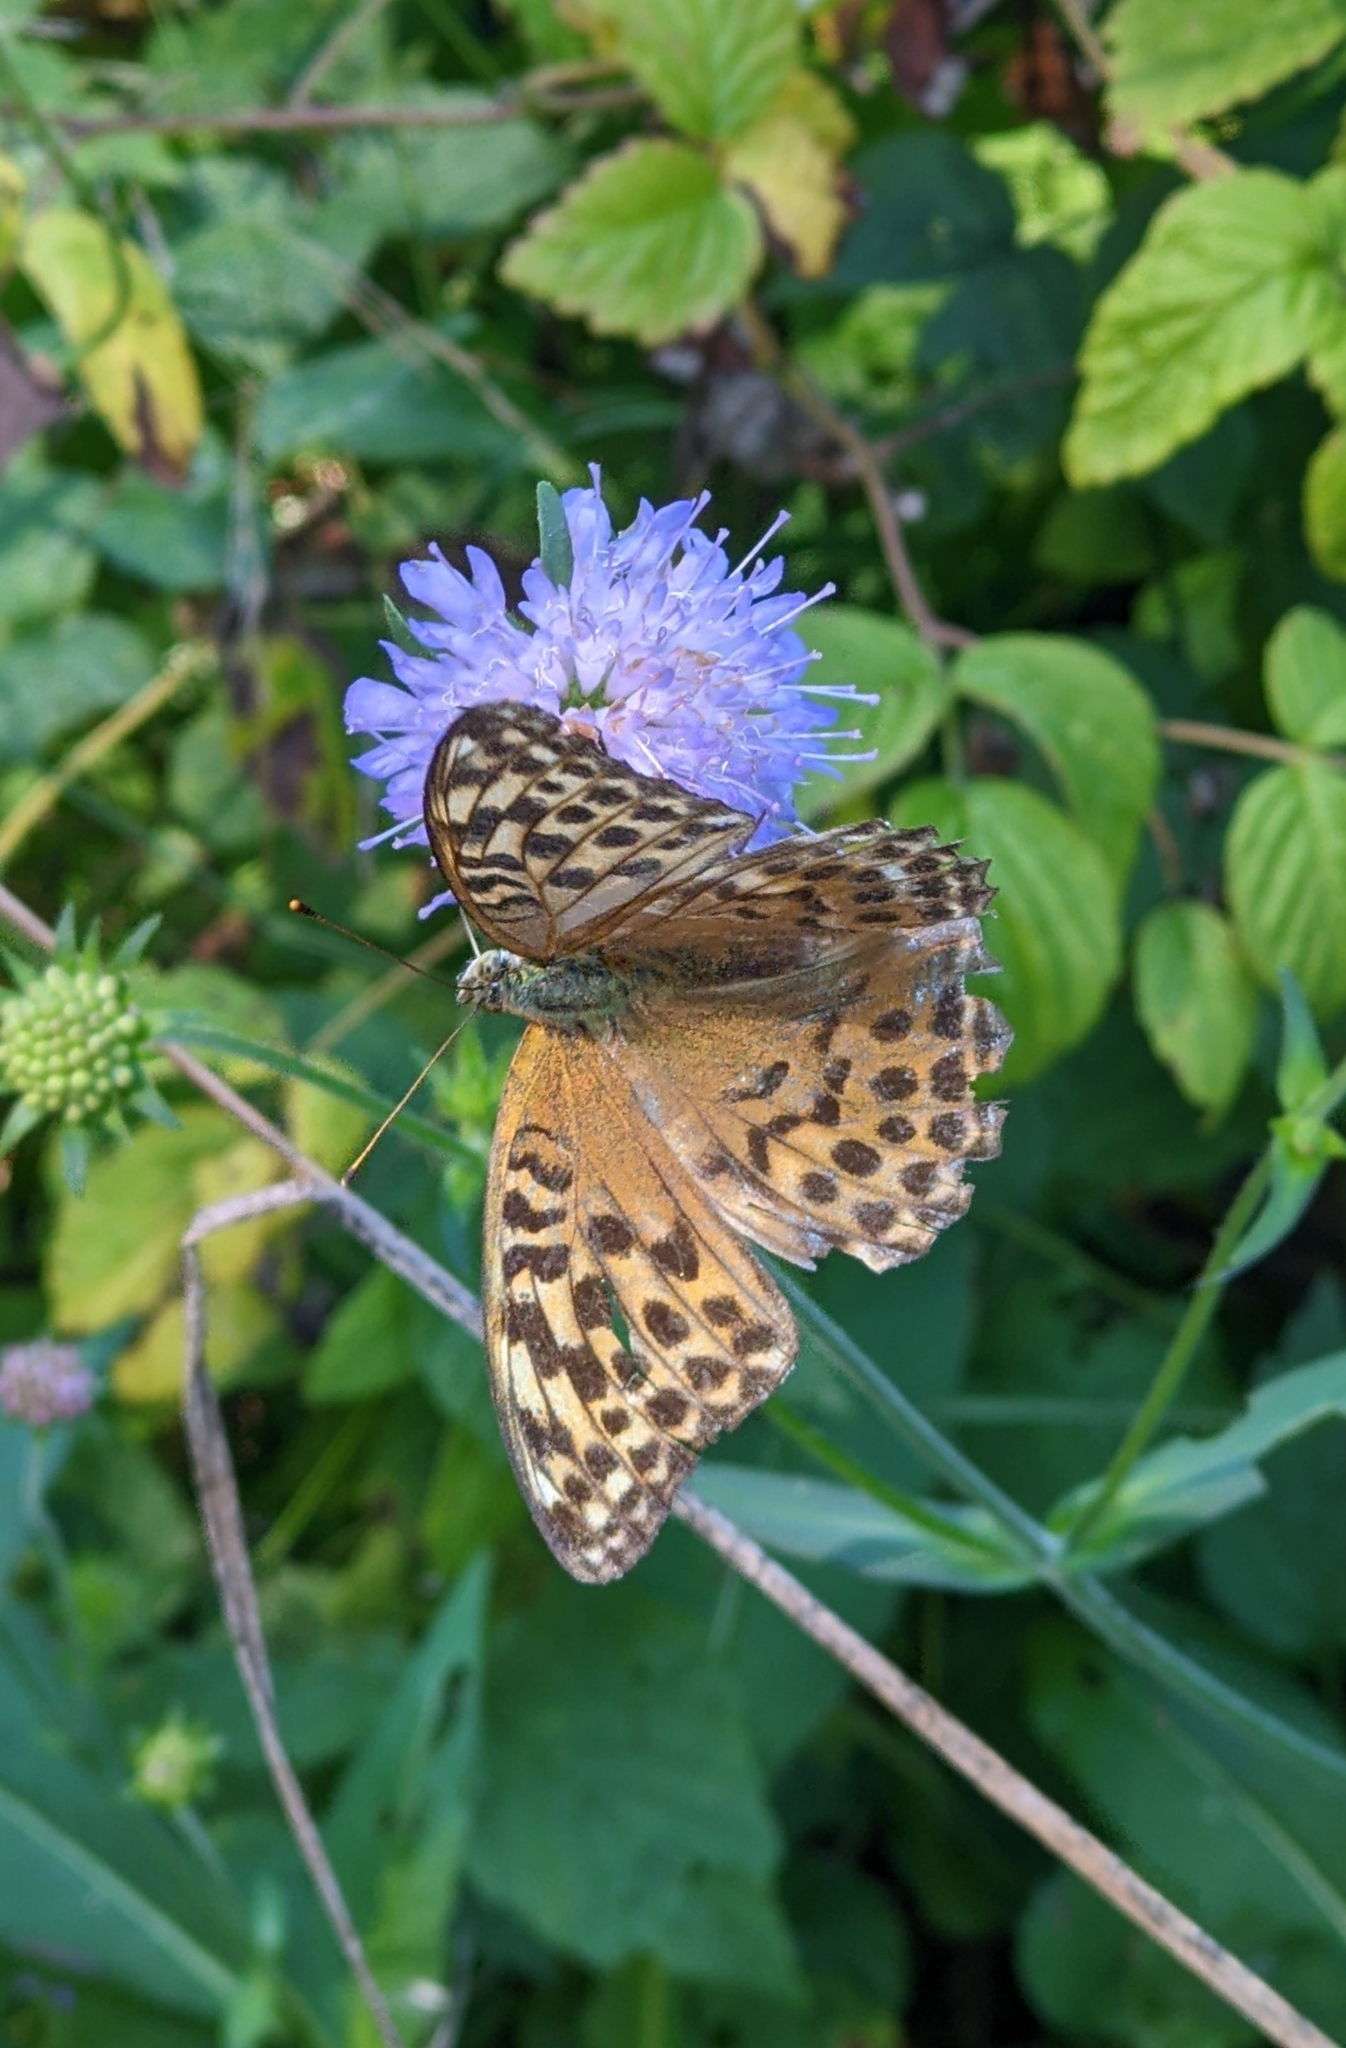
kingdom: Animalia
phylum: Arthropoda
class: Insecta
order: Lepidoptera
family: Nymphalidae
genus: Argynnis
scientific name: Argynnis paphia
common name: Silver-washed fritillary
